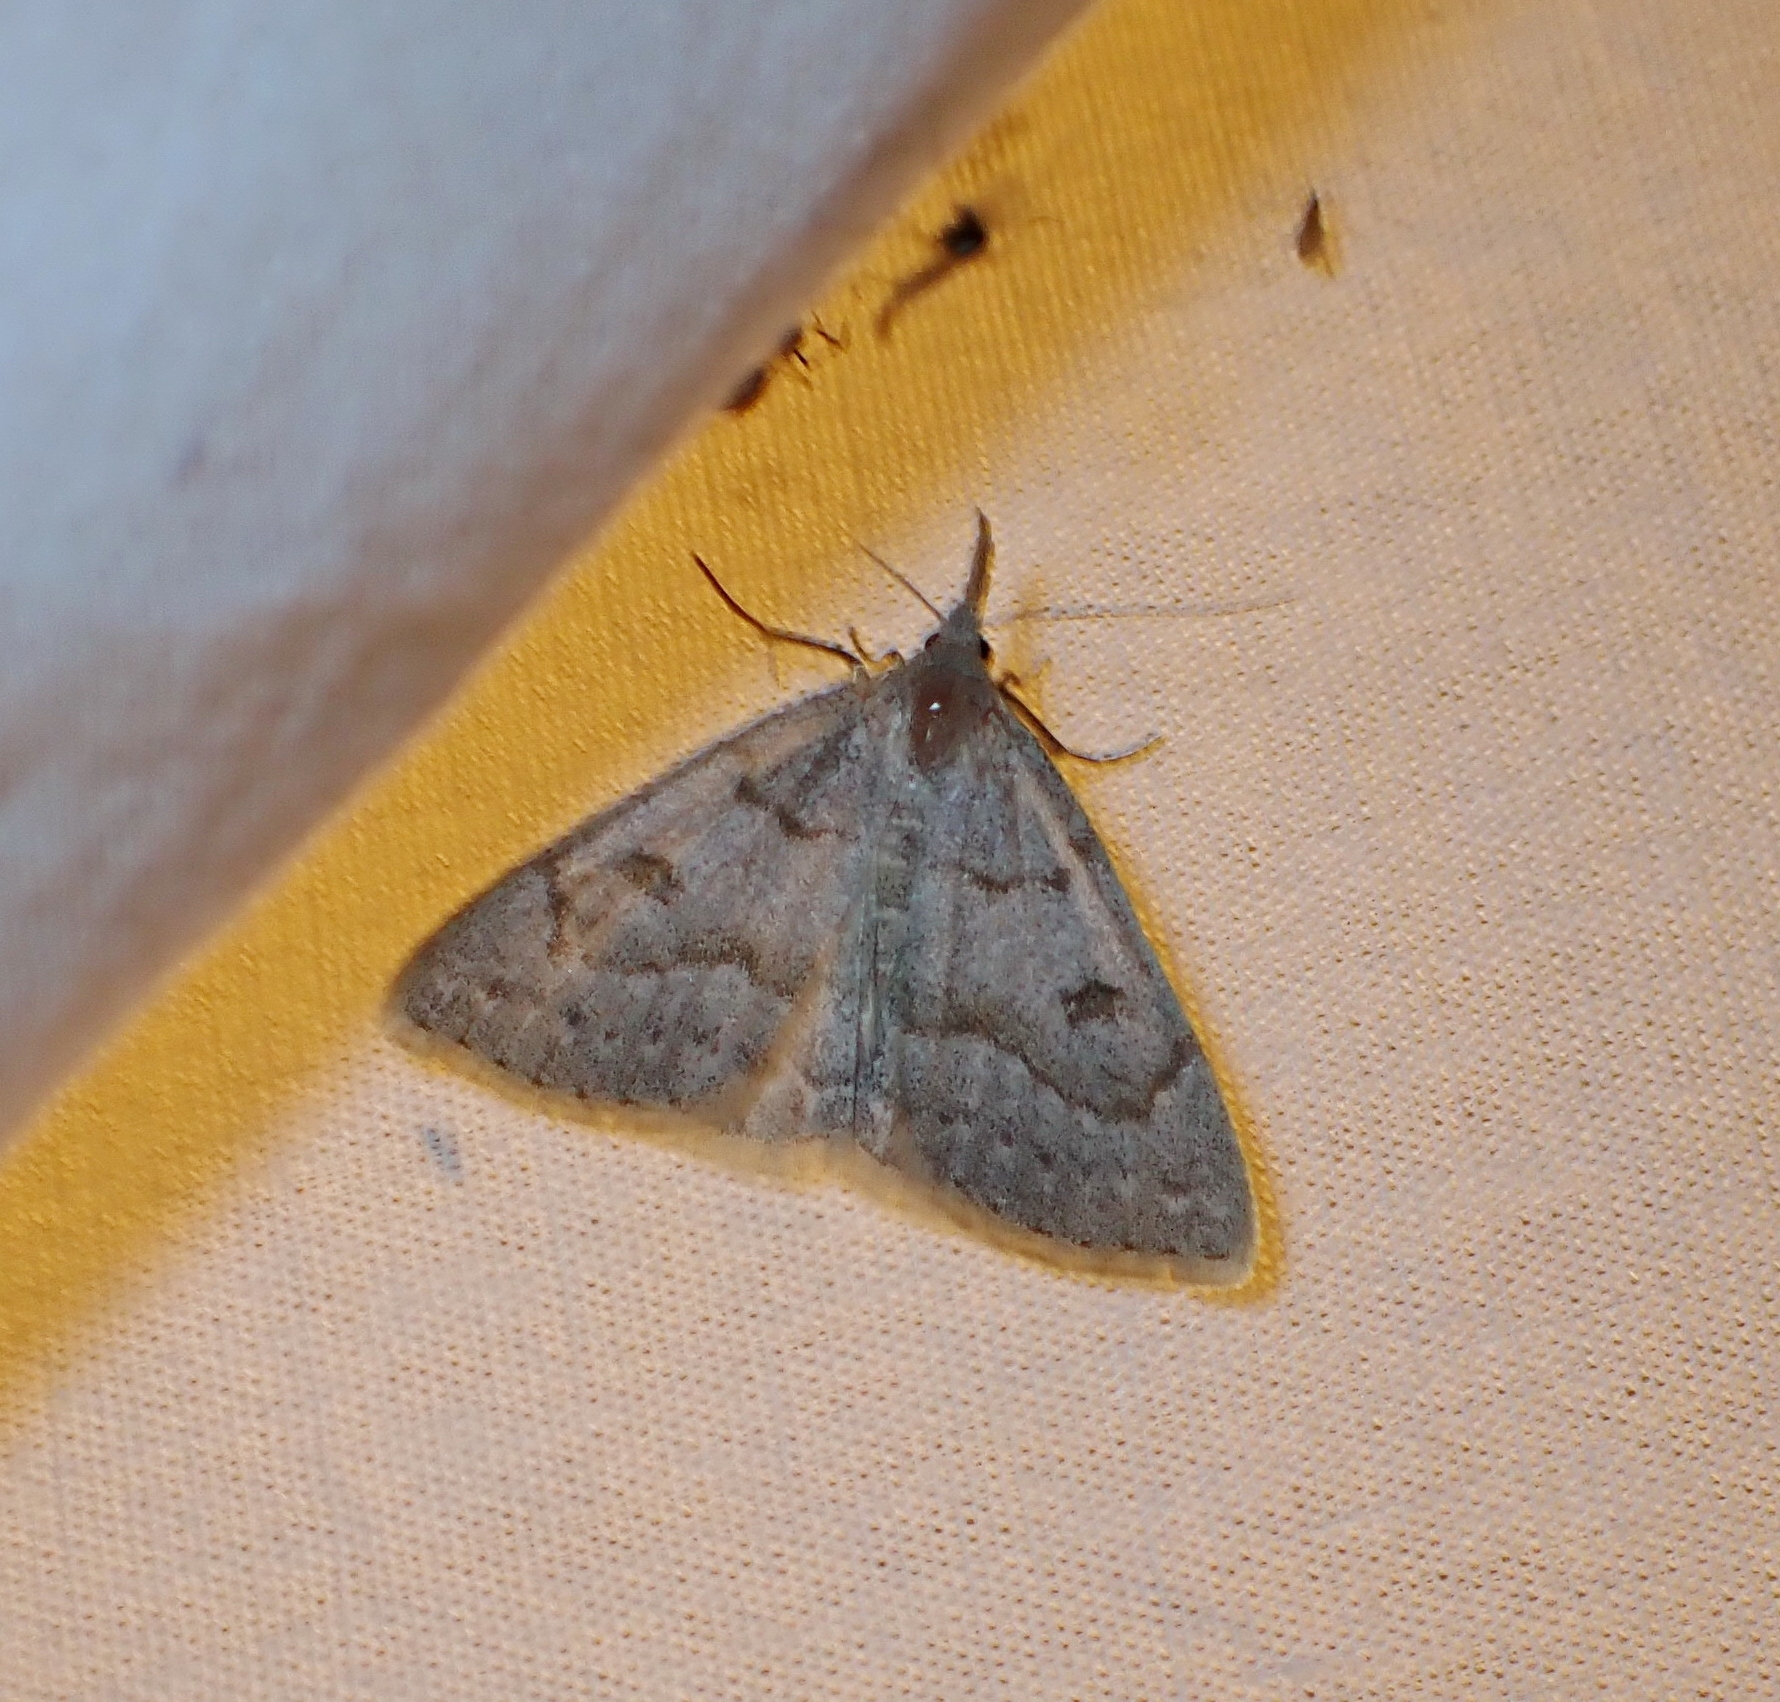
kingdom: Animalia
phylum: Arthropoda
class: Insecta
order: Lepidoptera
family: Erebidae
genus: Macrochilo
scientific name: Macrochilo morbidalis
